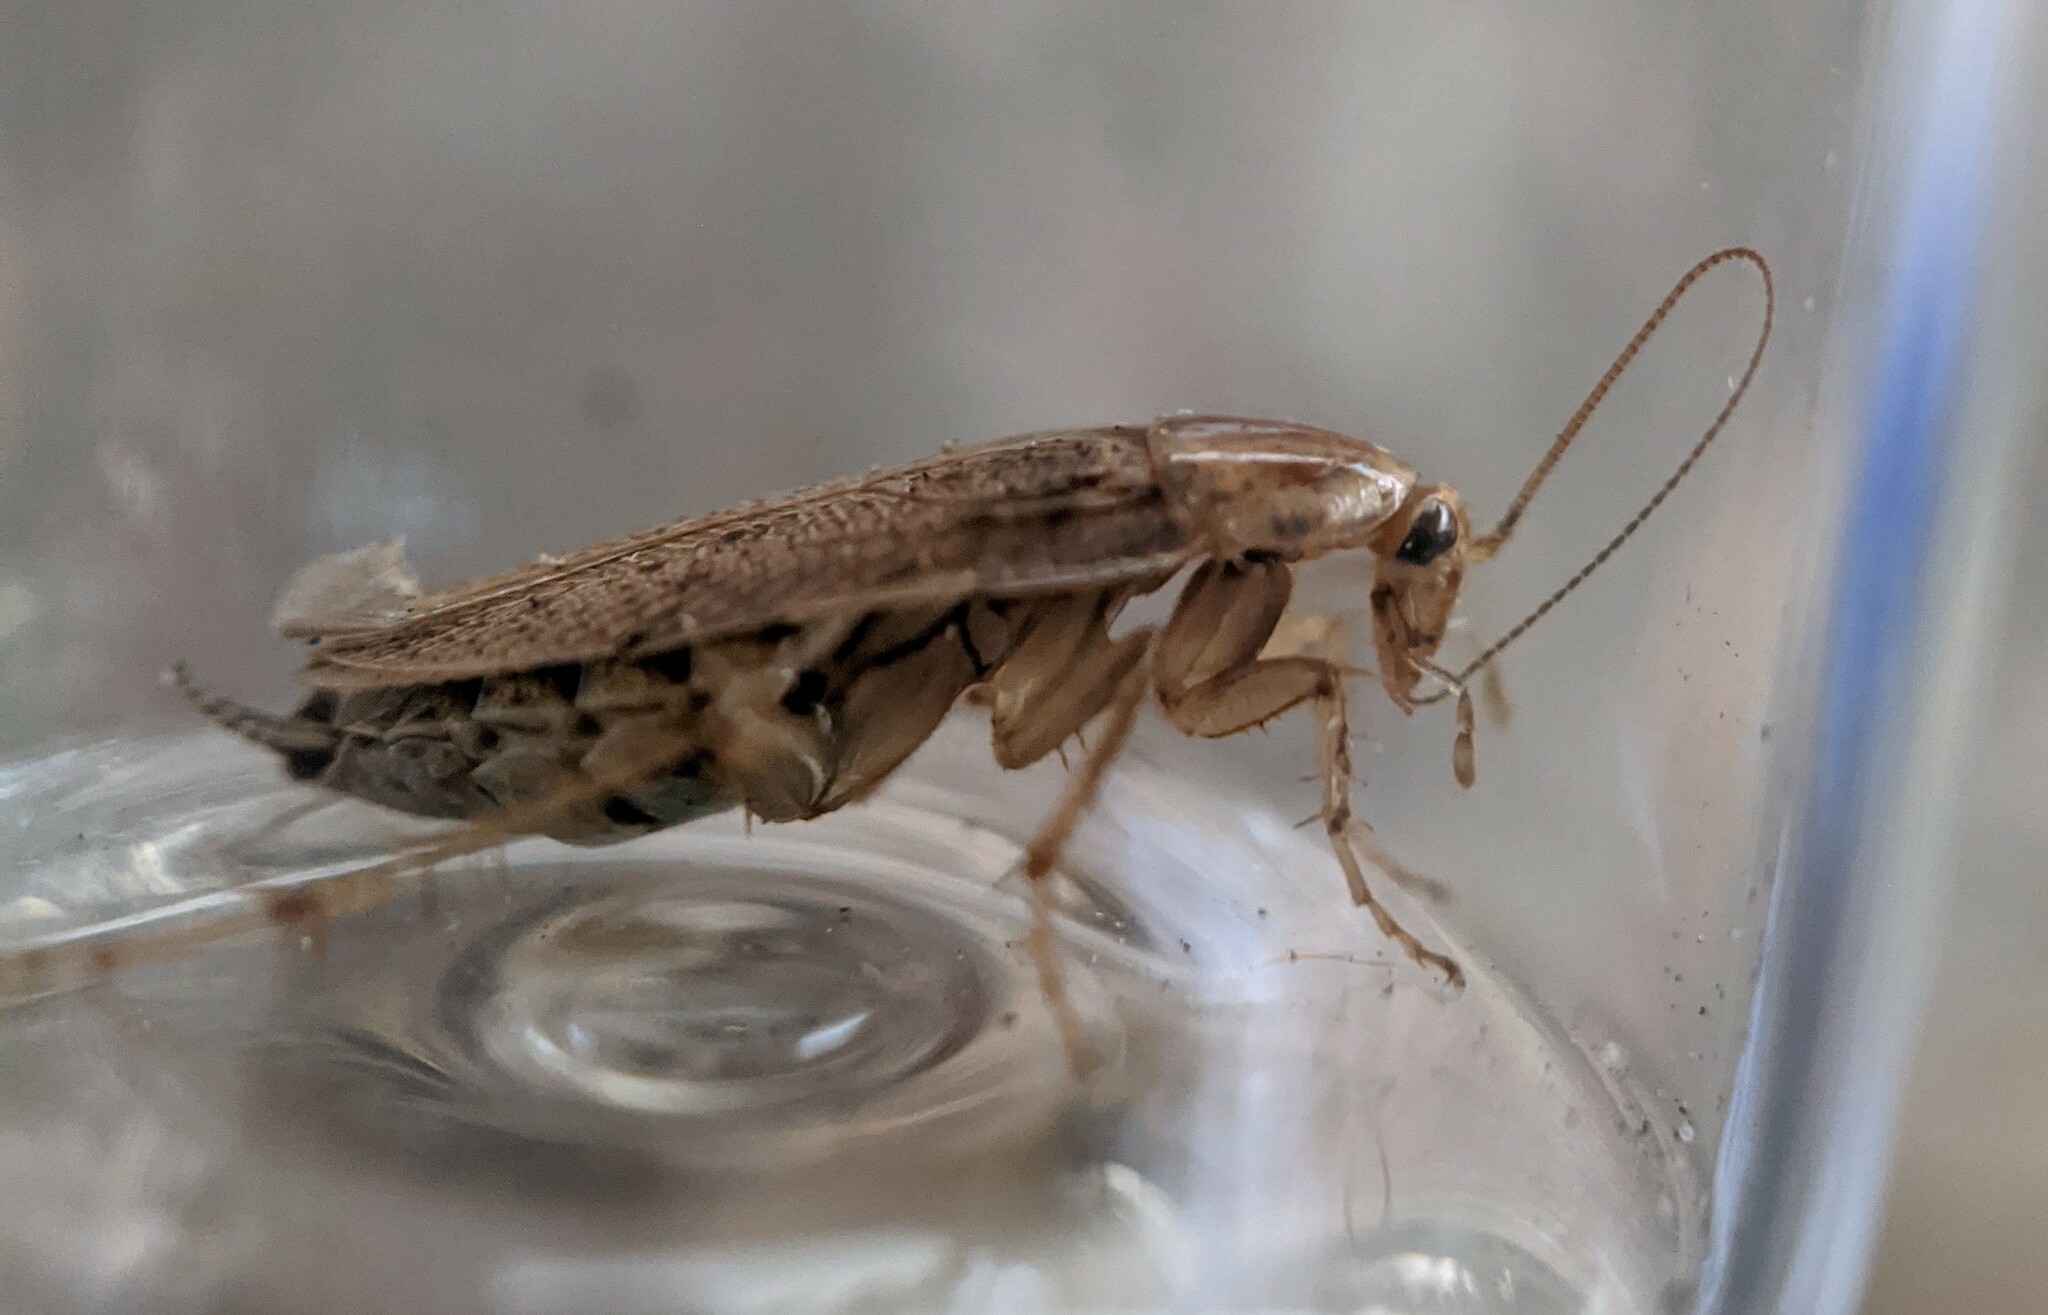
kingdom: Animalia
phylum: Arthropoda
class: Insecta
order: Blattodea
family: Ectobiidae
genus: Ectobius
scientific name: Ectobius pallidus
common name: Tawny cockroach
